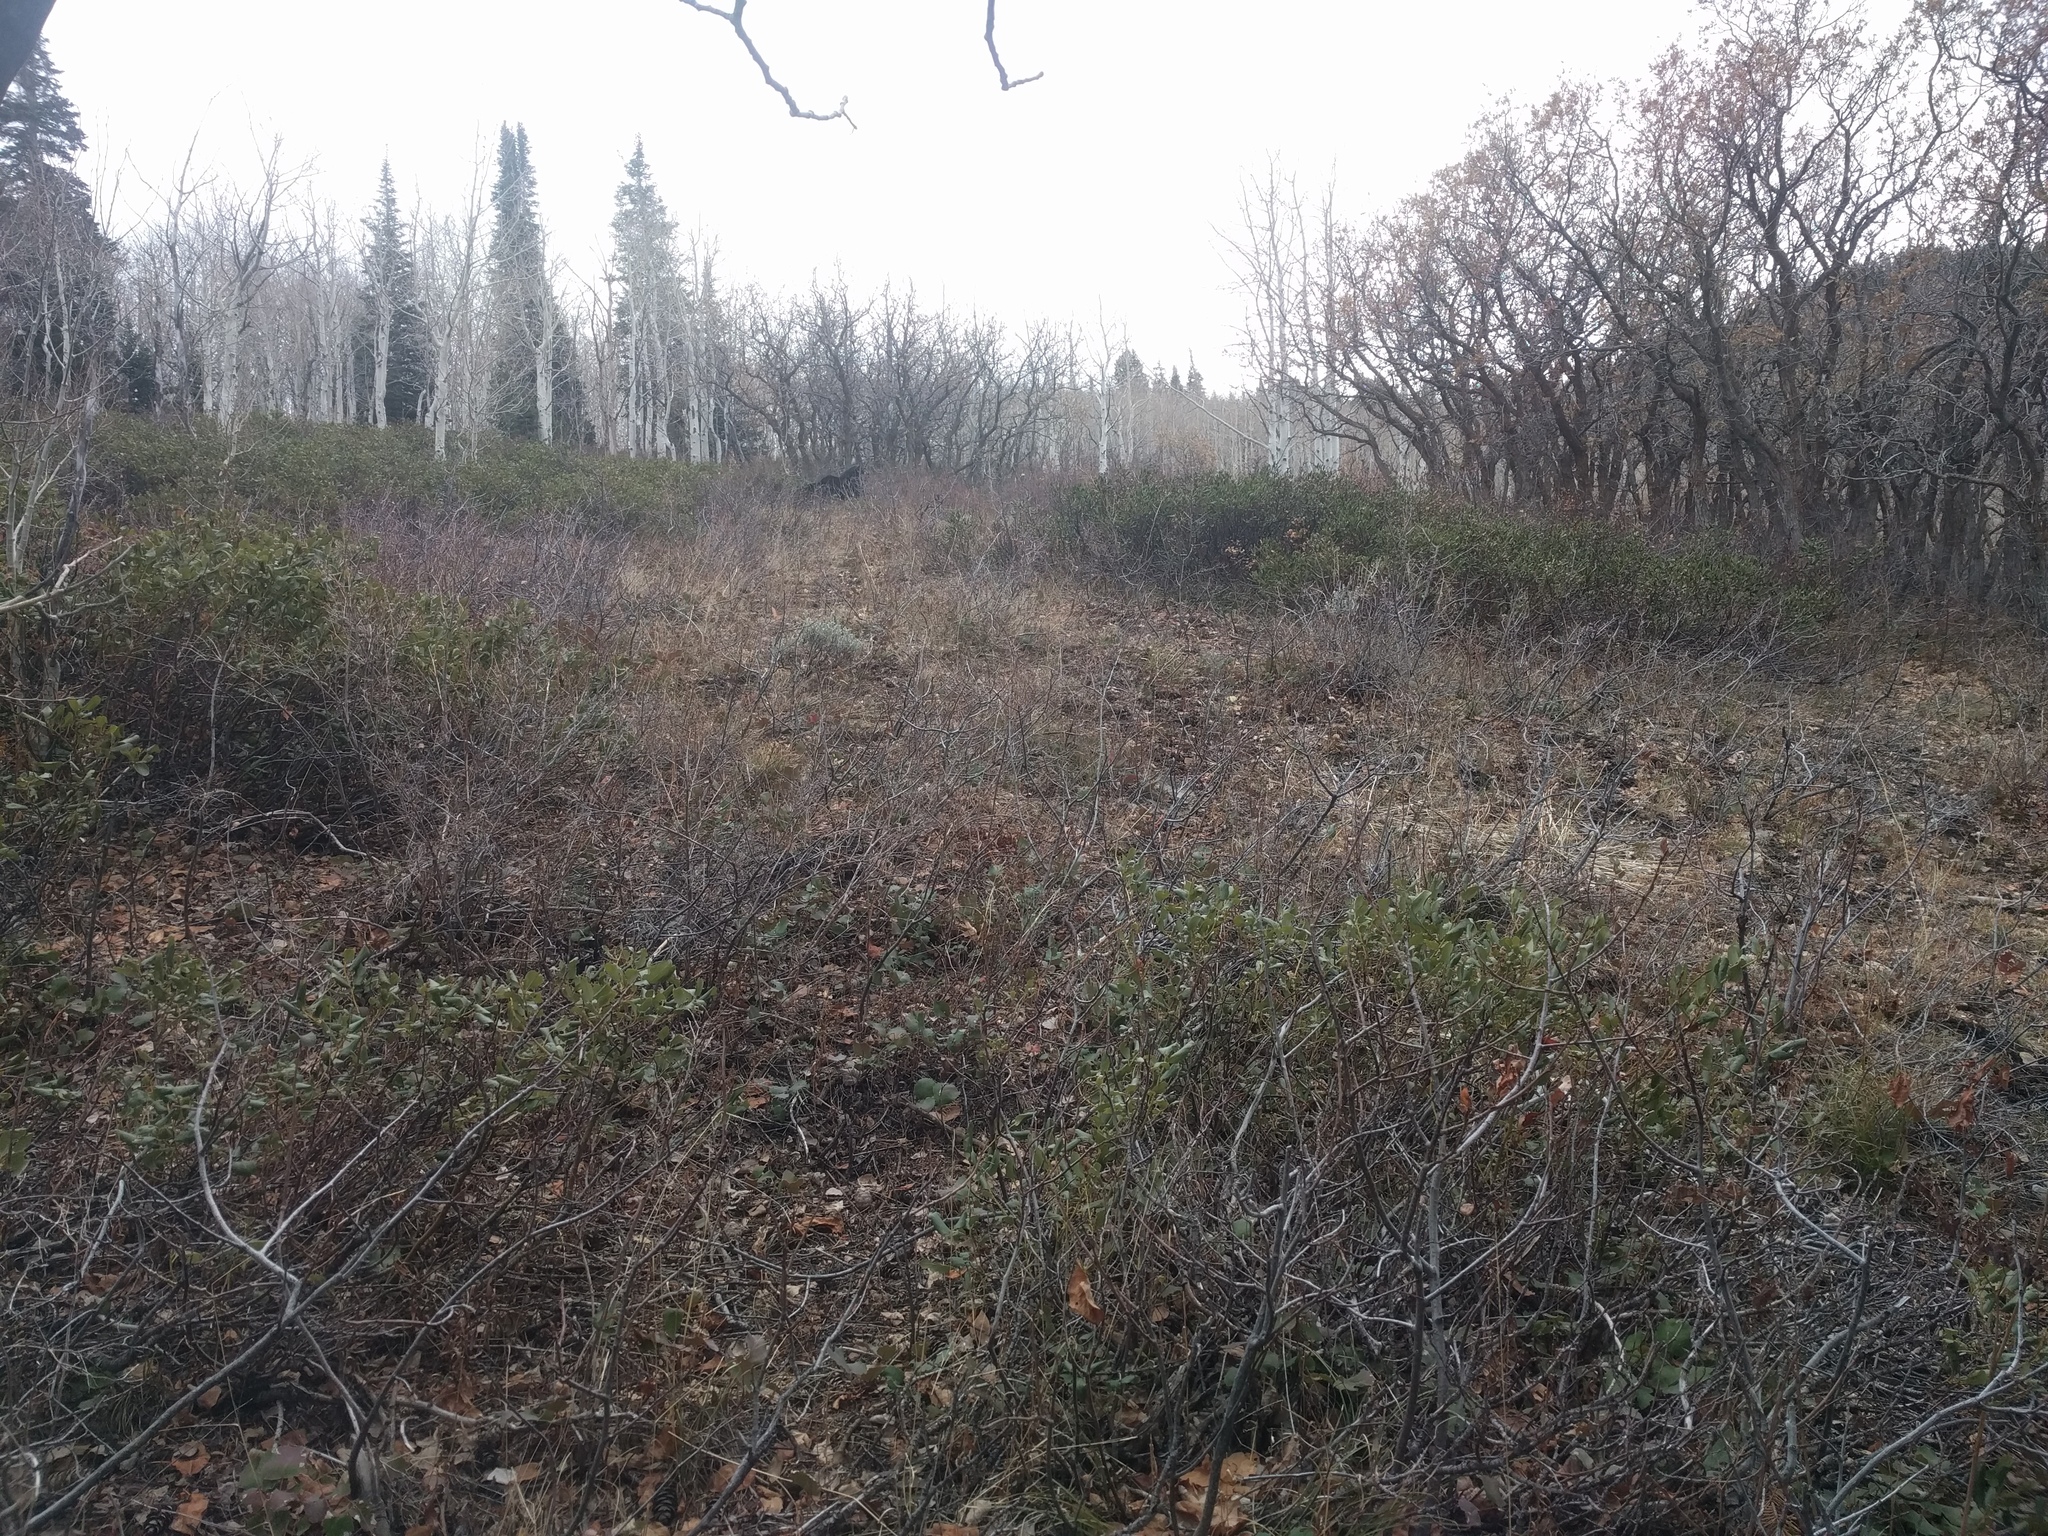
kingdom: Animalia
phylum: Chordata
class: Mammalia
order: Artiodactyla
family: Cervidae
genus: Alces
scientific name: Alces alces
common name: Moose
